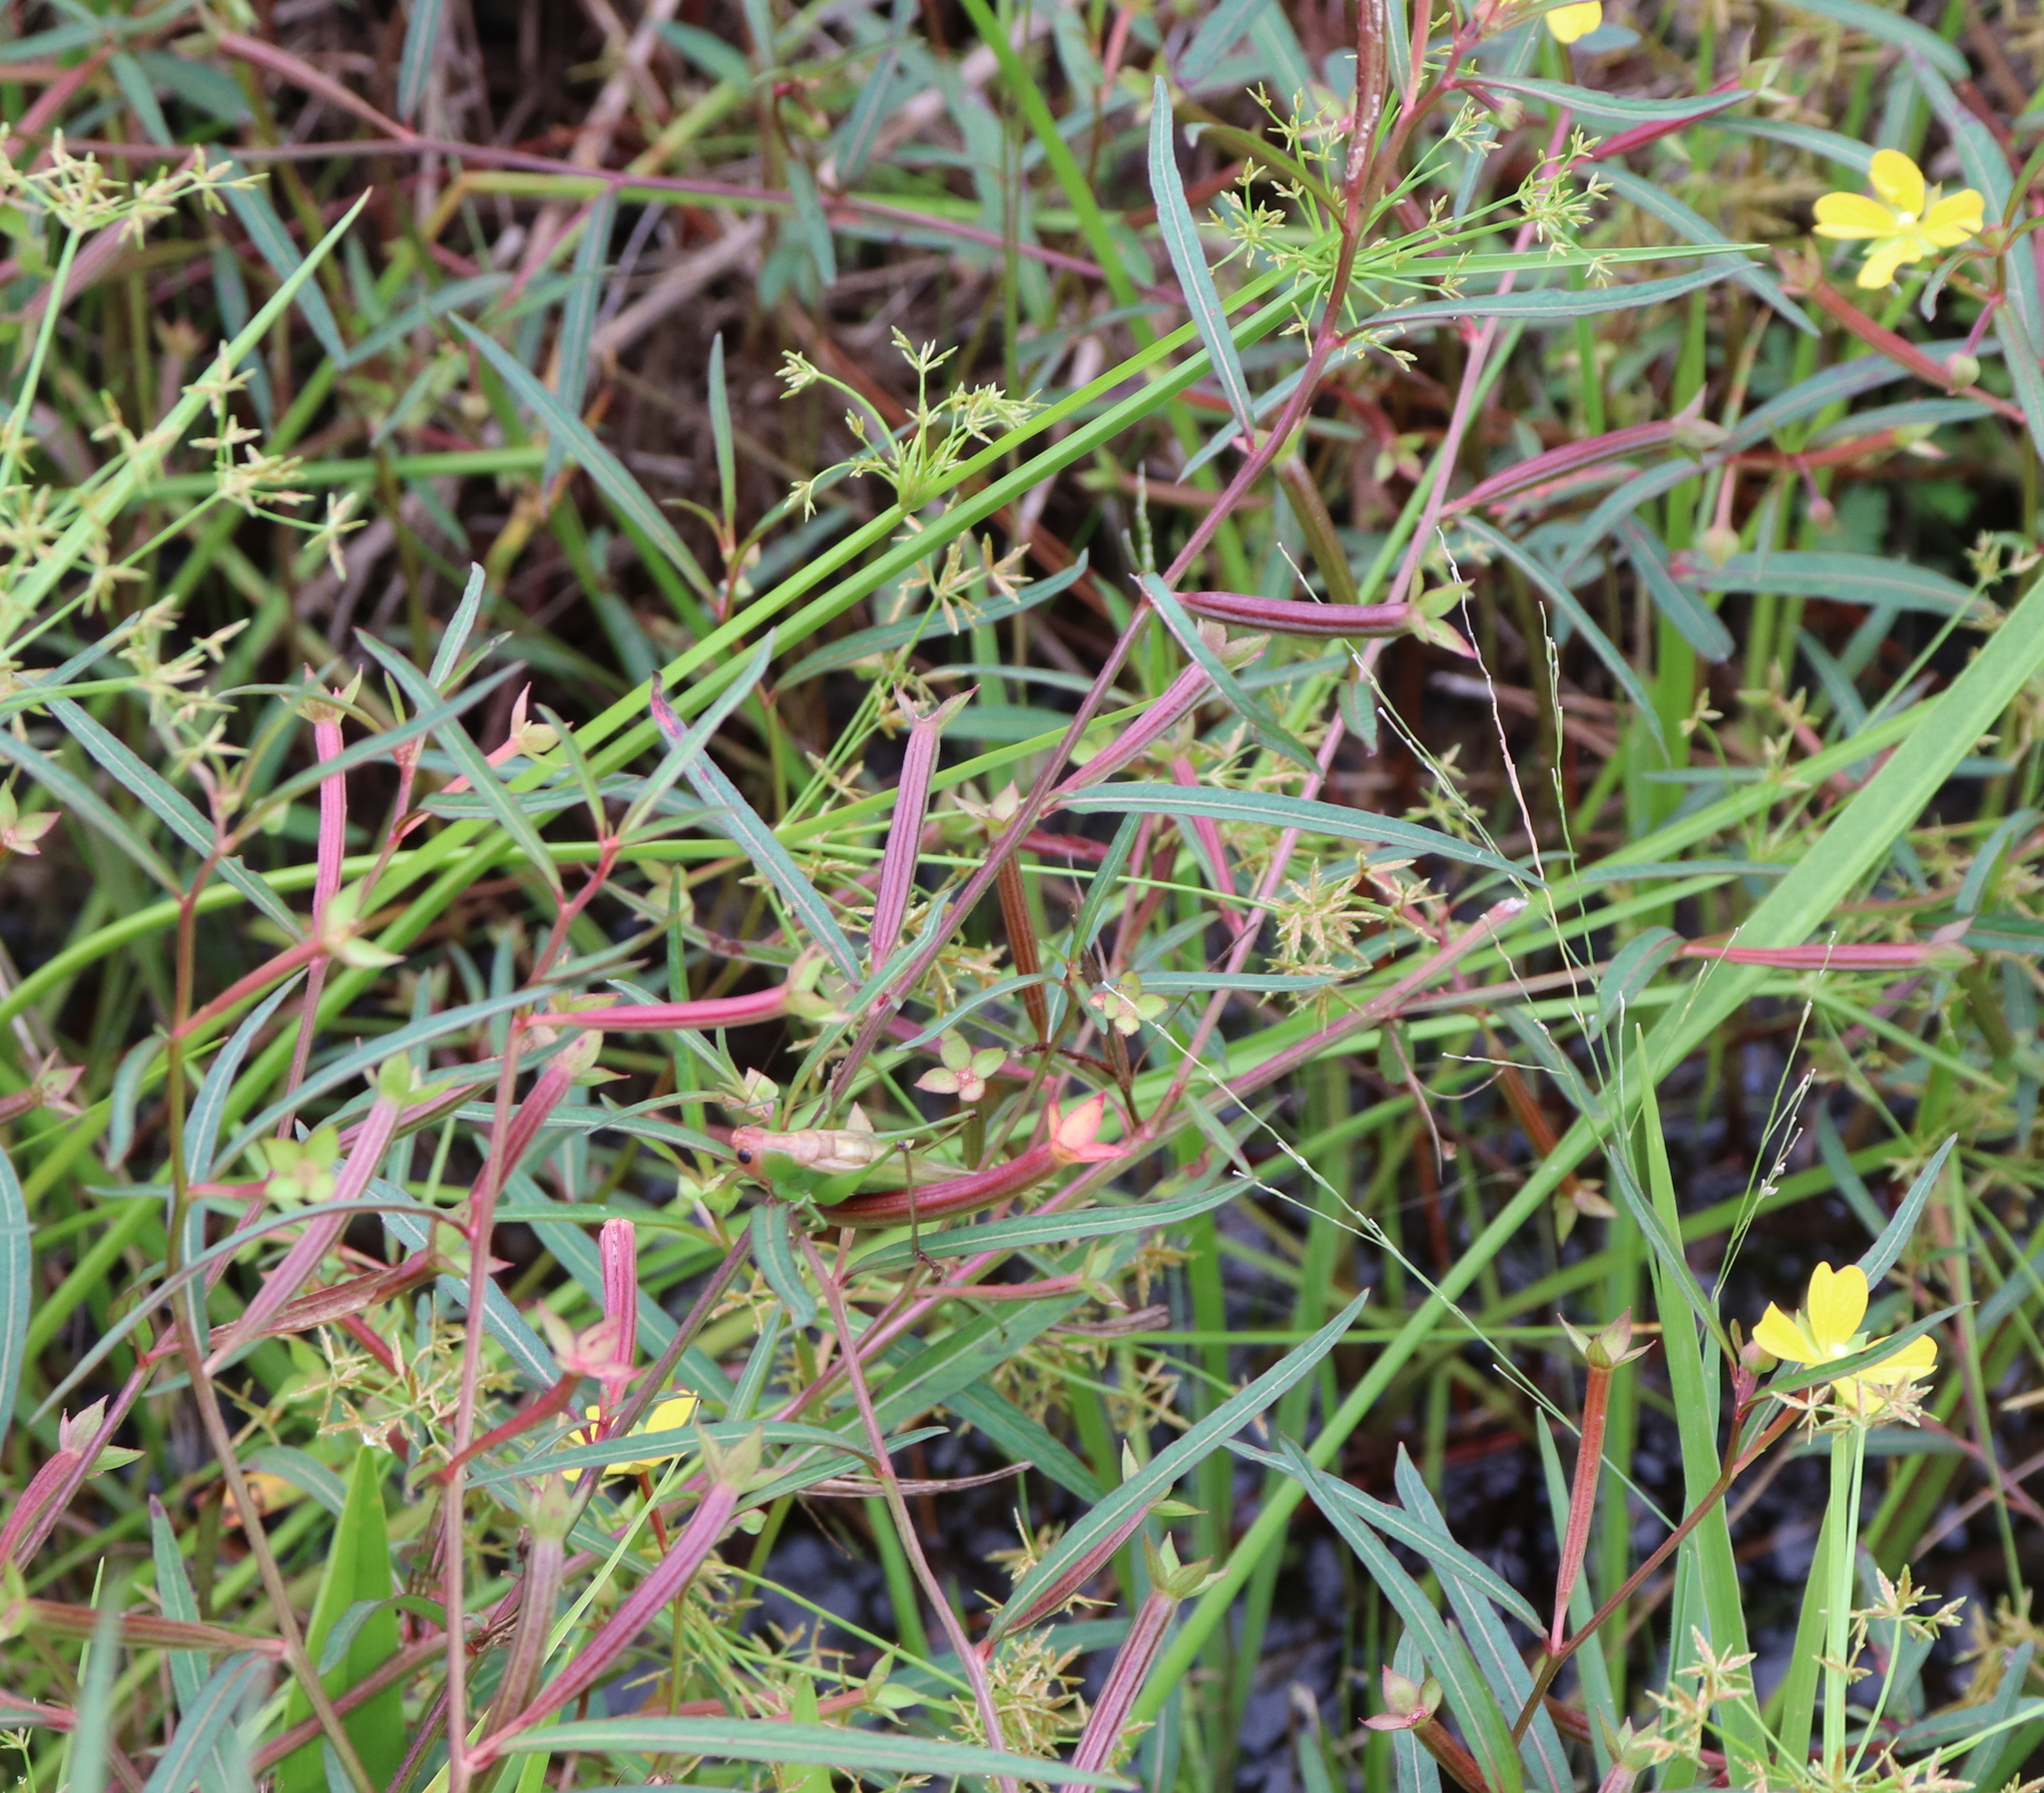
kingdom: Plantae
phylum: Tracheophyta
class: Magnoliopsida
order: Myrtales
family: Onagraceae
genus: Ludwigia
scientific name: Ludwigia octovalvis
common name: Water-primrose
